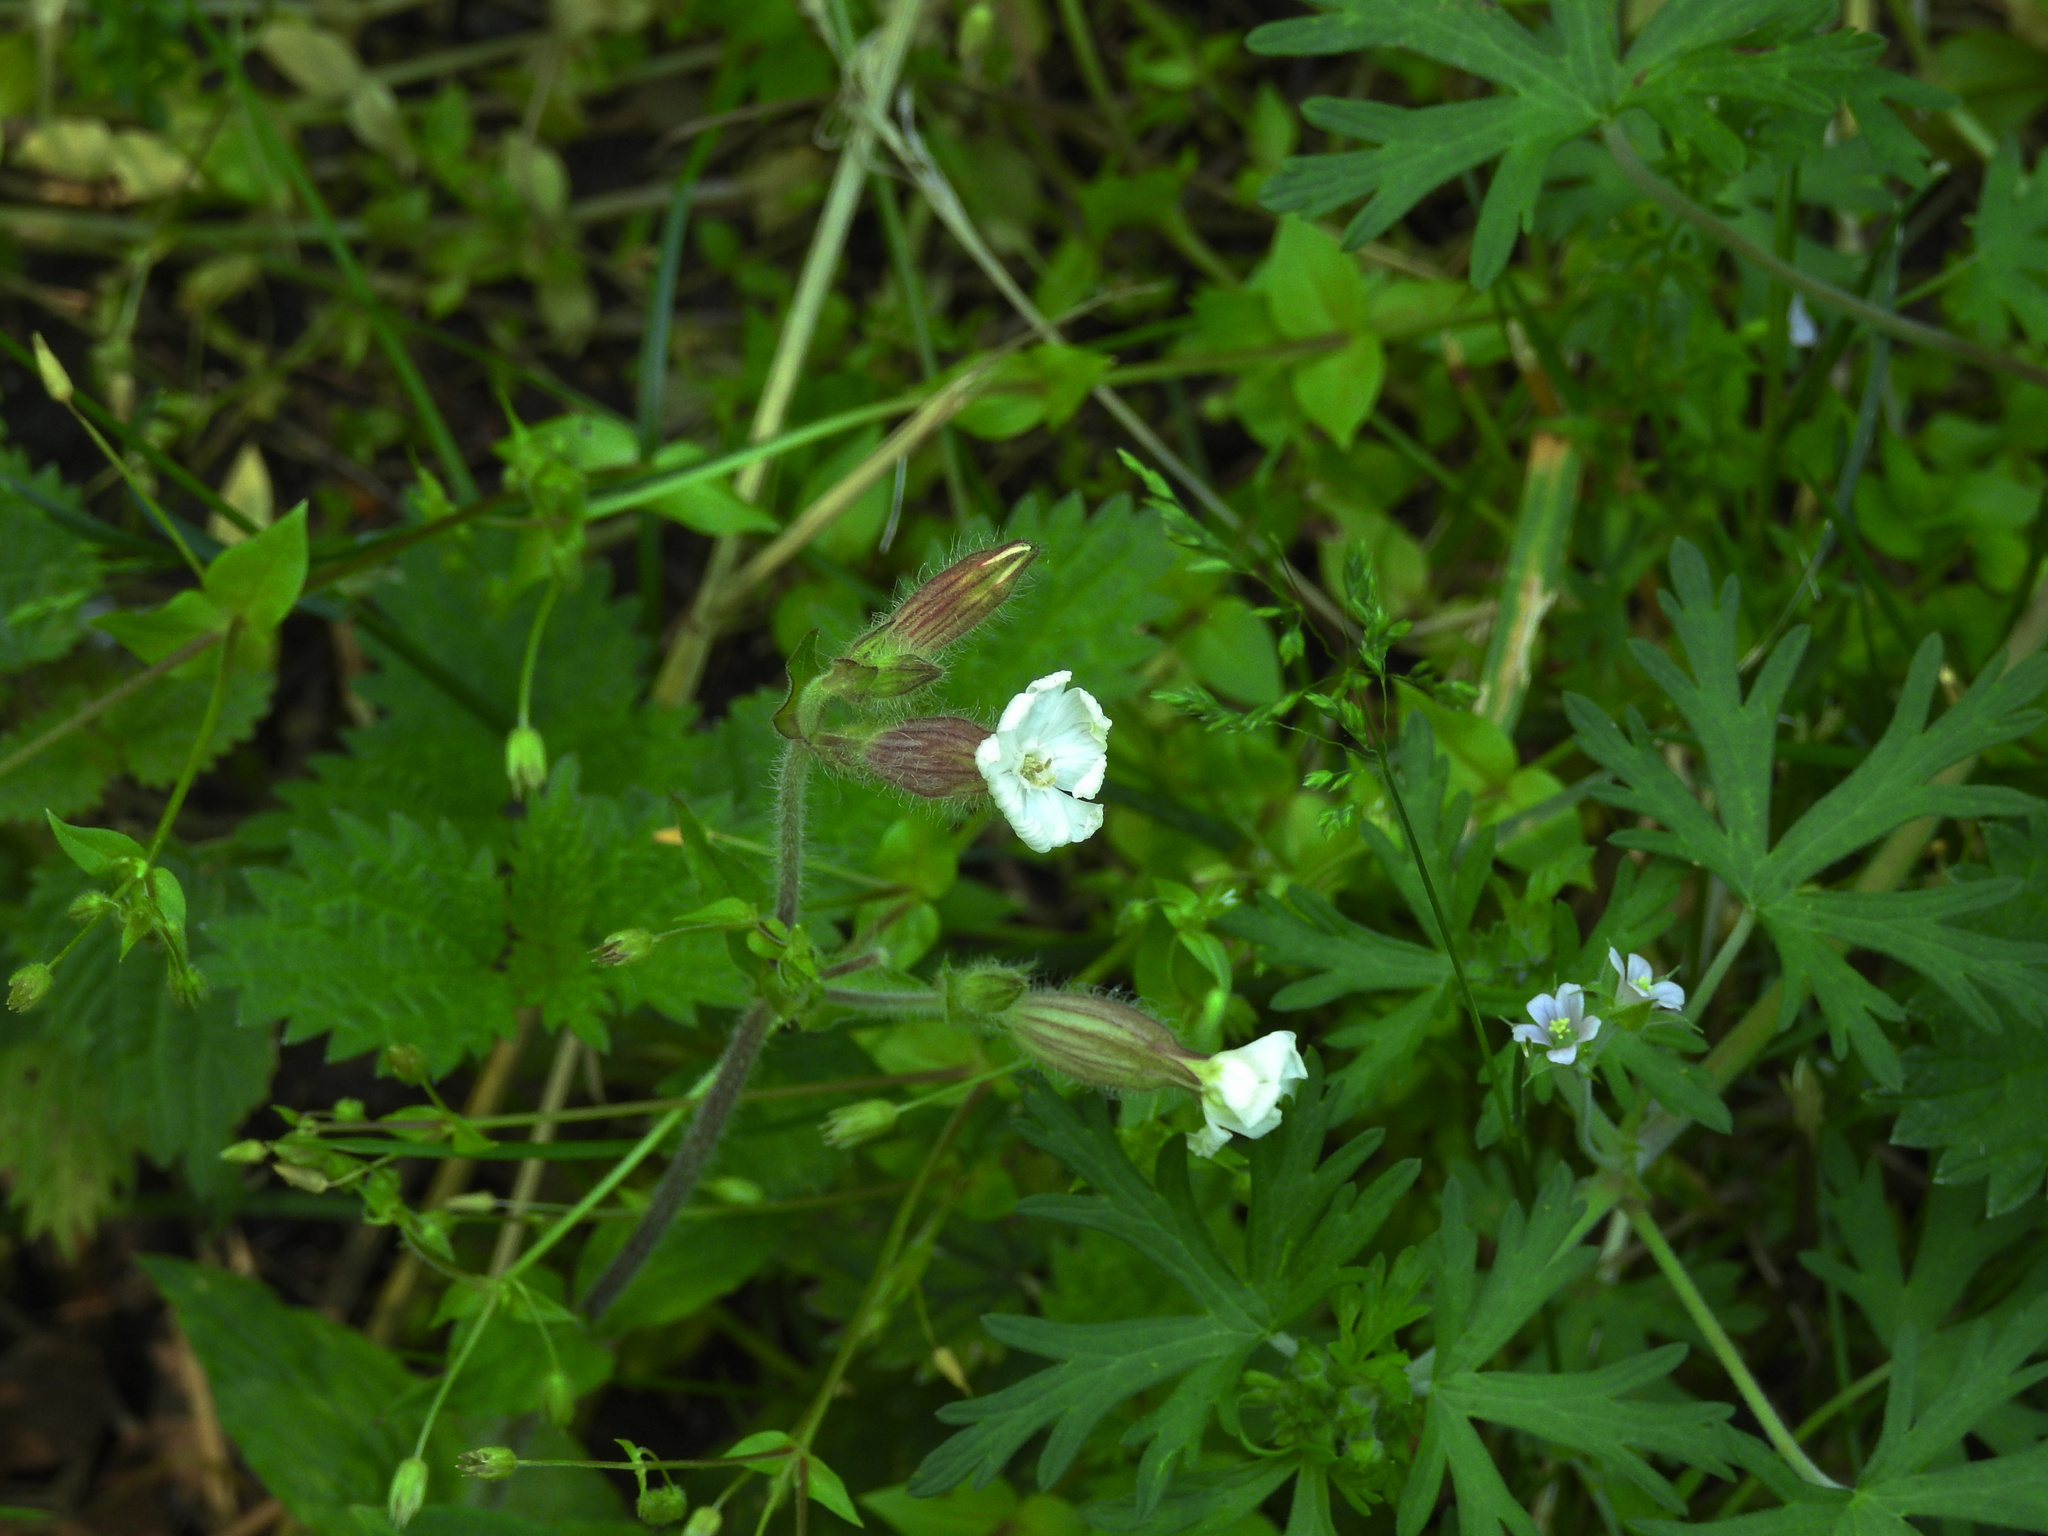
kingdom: Plantae
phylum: Tracheophyta
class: Magnoliopsida
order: Caryophyllales
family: Caryophyllaceae
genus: Silene
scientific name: Silene latifolia
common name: White campion
